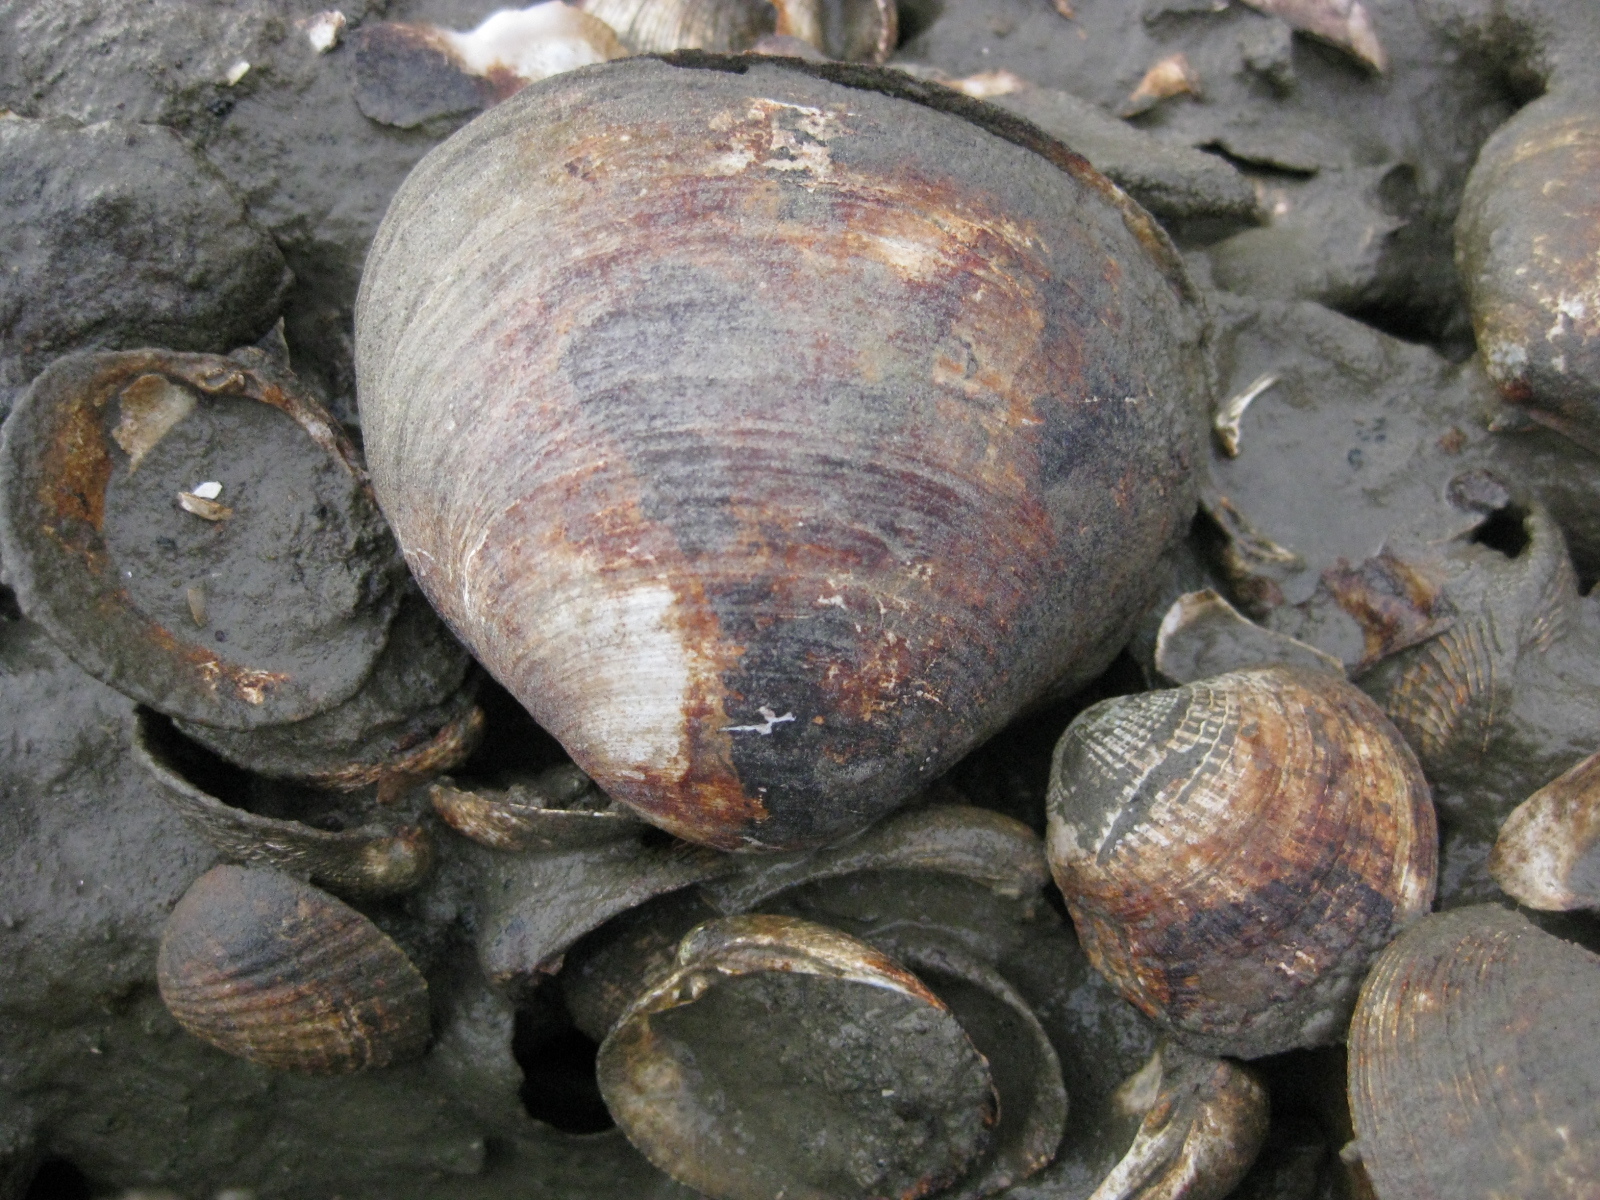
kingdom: Animalia
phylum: Mollusca
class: Bivalvia
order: Venerida
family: Mactridae
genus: Cyclomactra
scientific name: Cyclomactra ovata
